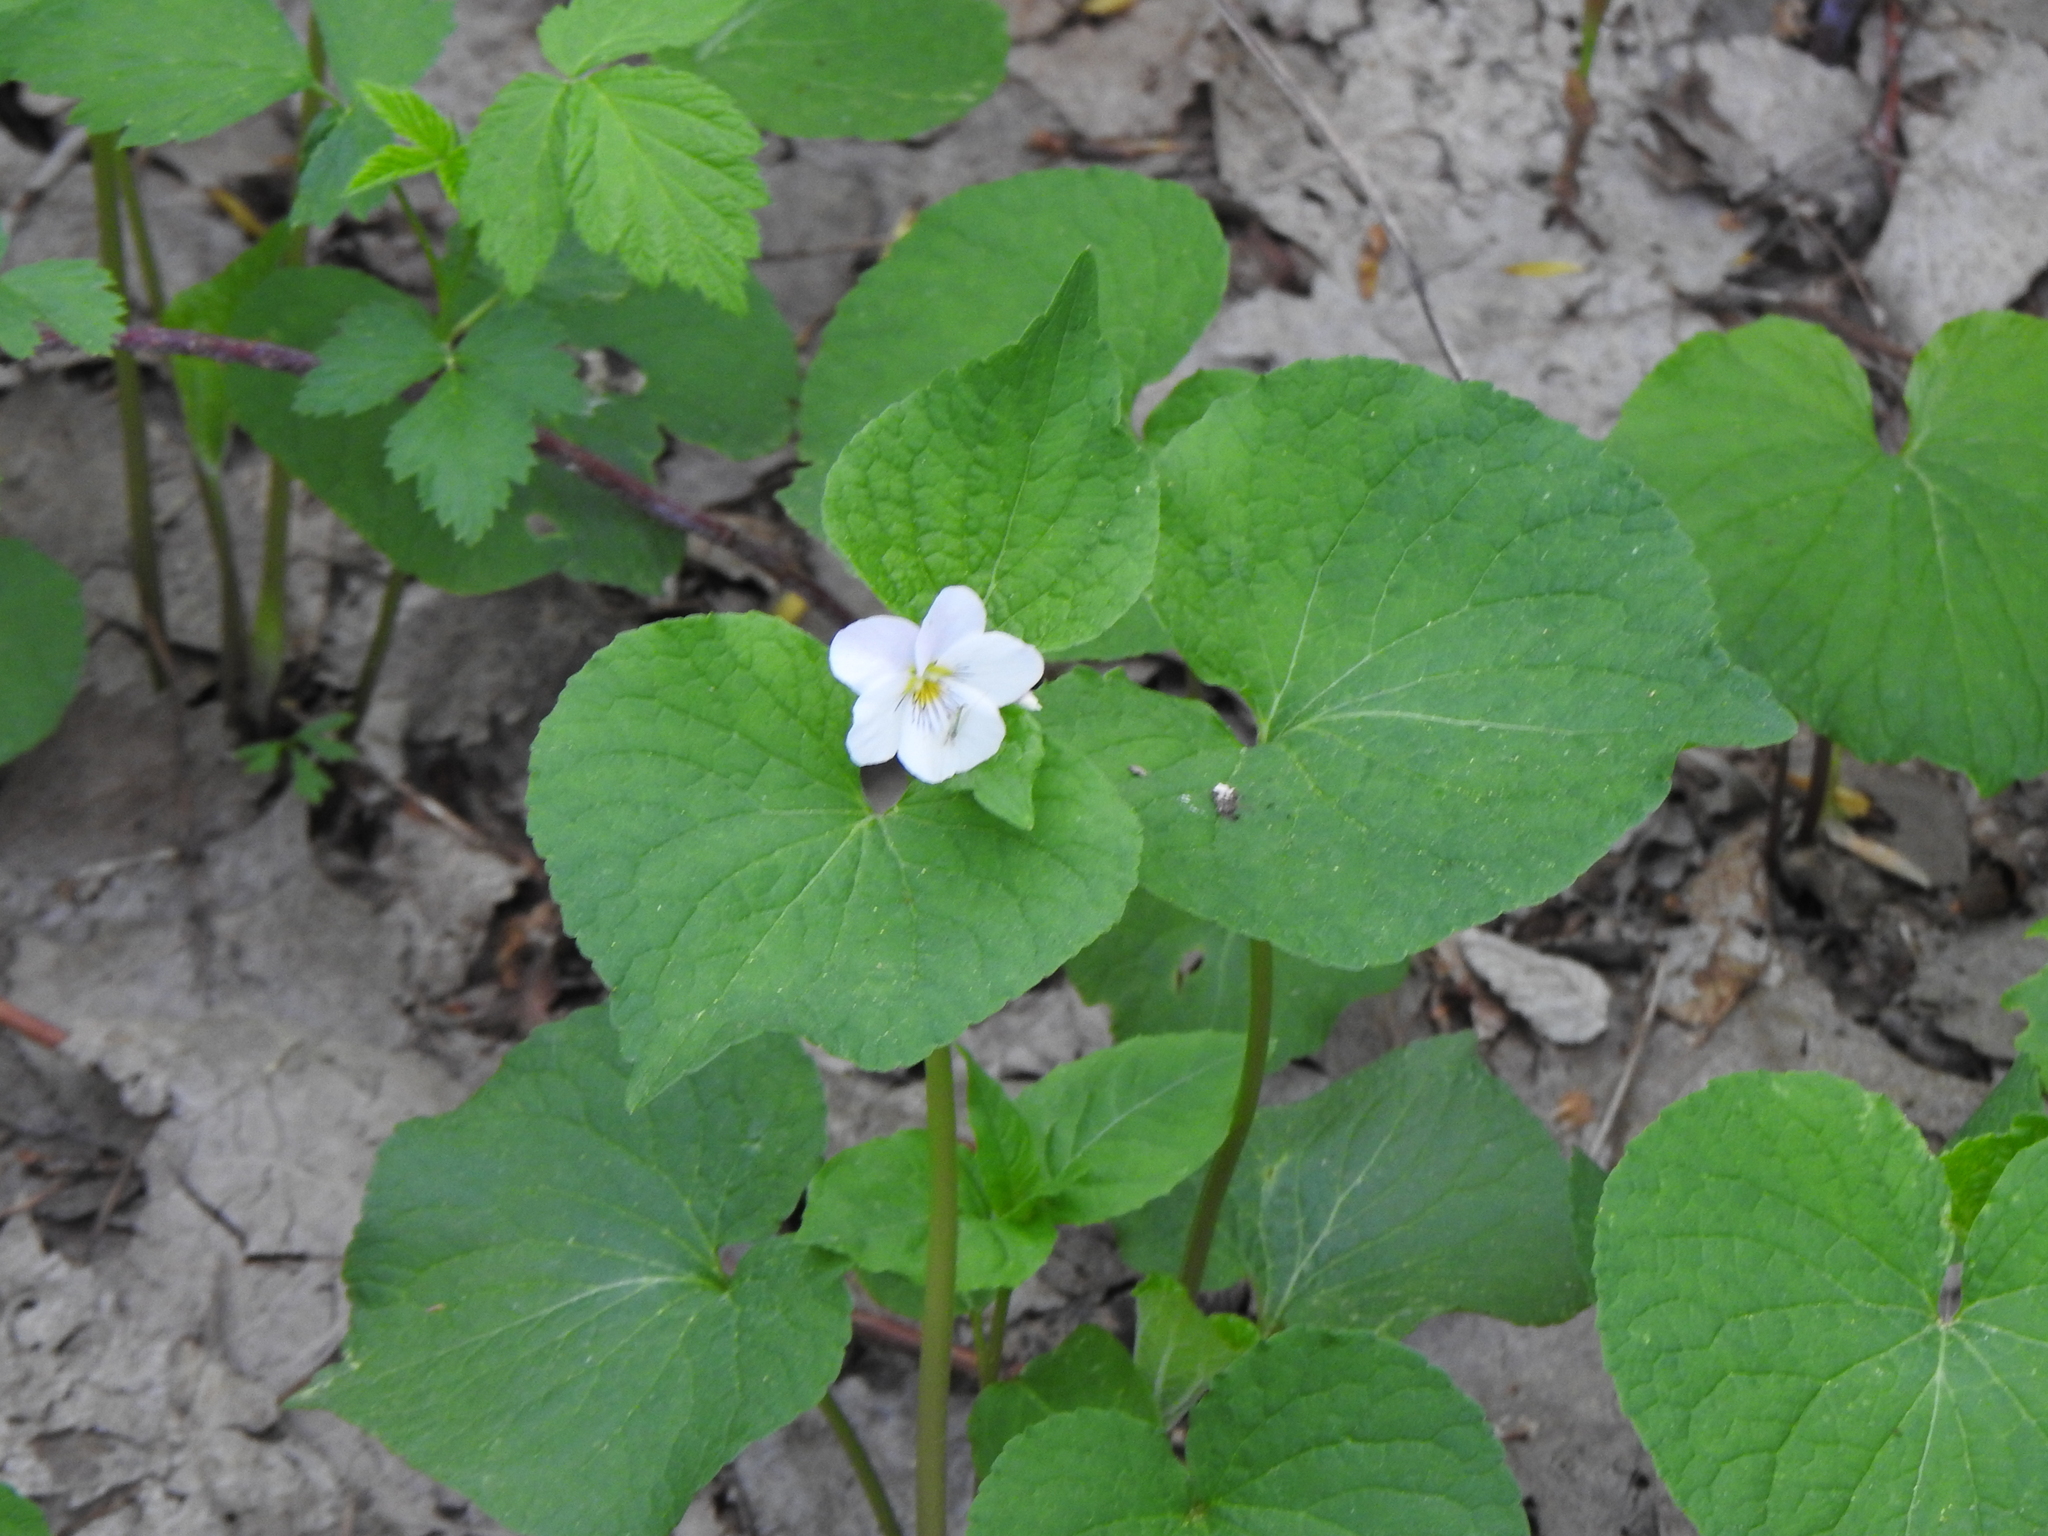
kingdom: Plantae
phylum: Tracheophyta
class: Magnoliopsida
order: Malpighiales
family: Violaceae
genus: Viola
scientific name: Viola canadensis
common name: Canada violet
